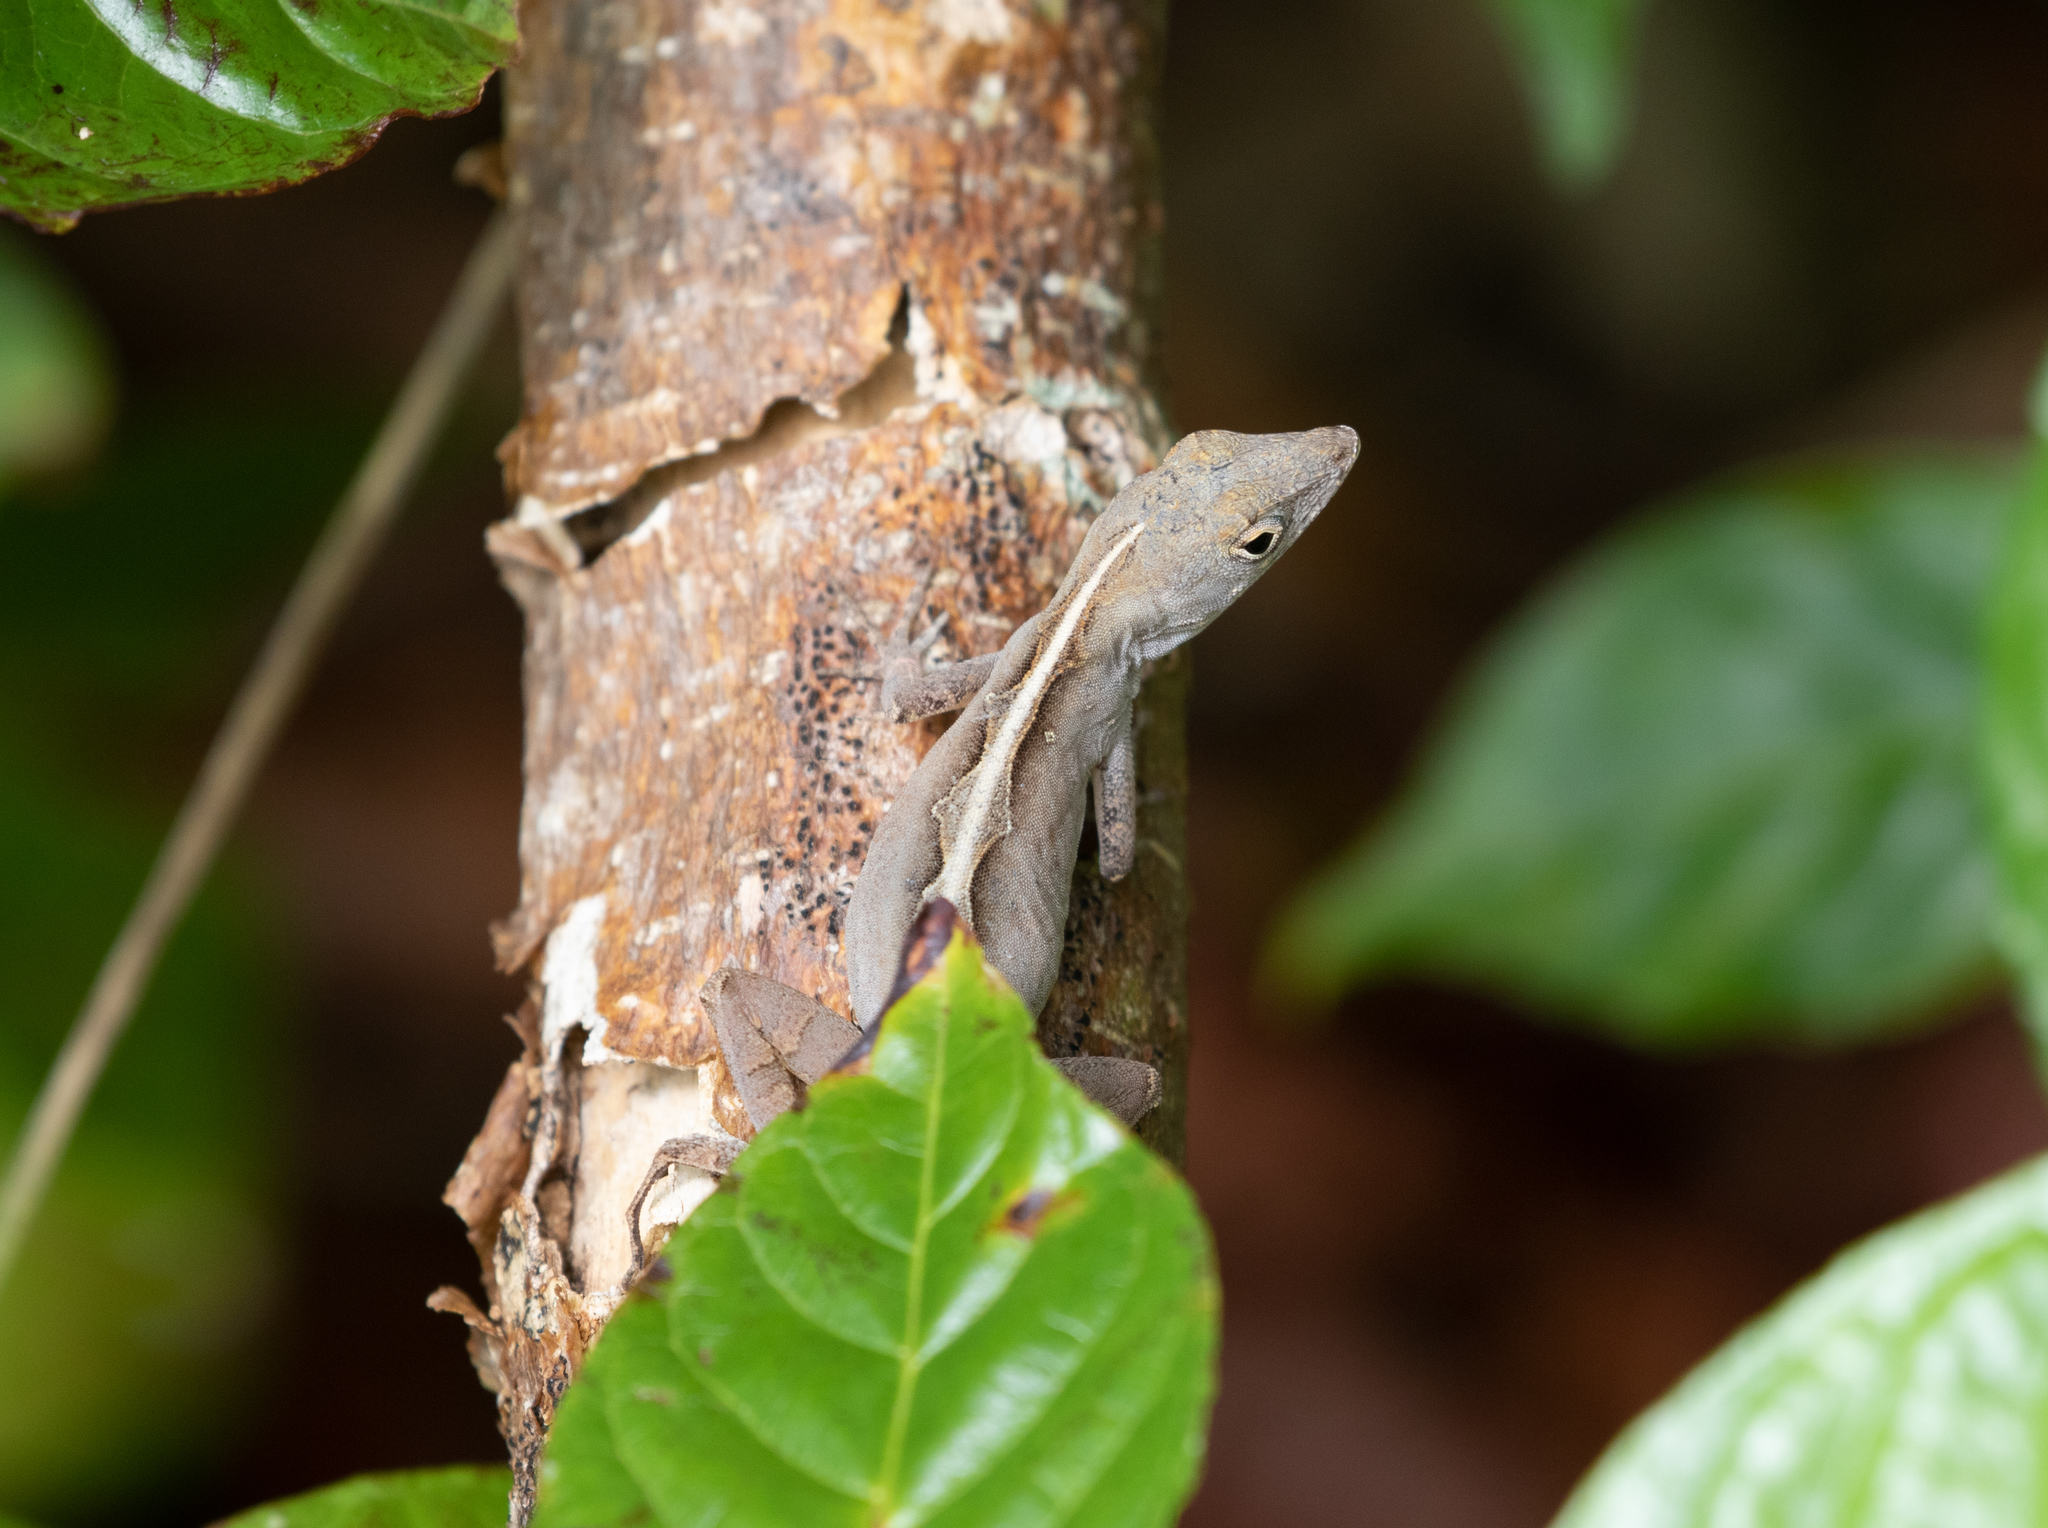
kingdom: Animalia
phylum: Chordata
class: Squamata
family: Dactyloidae
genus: Anolis
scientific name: Anolis sagrei
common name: Brown anole
